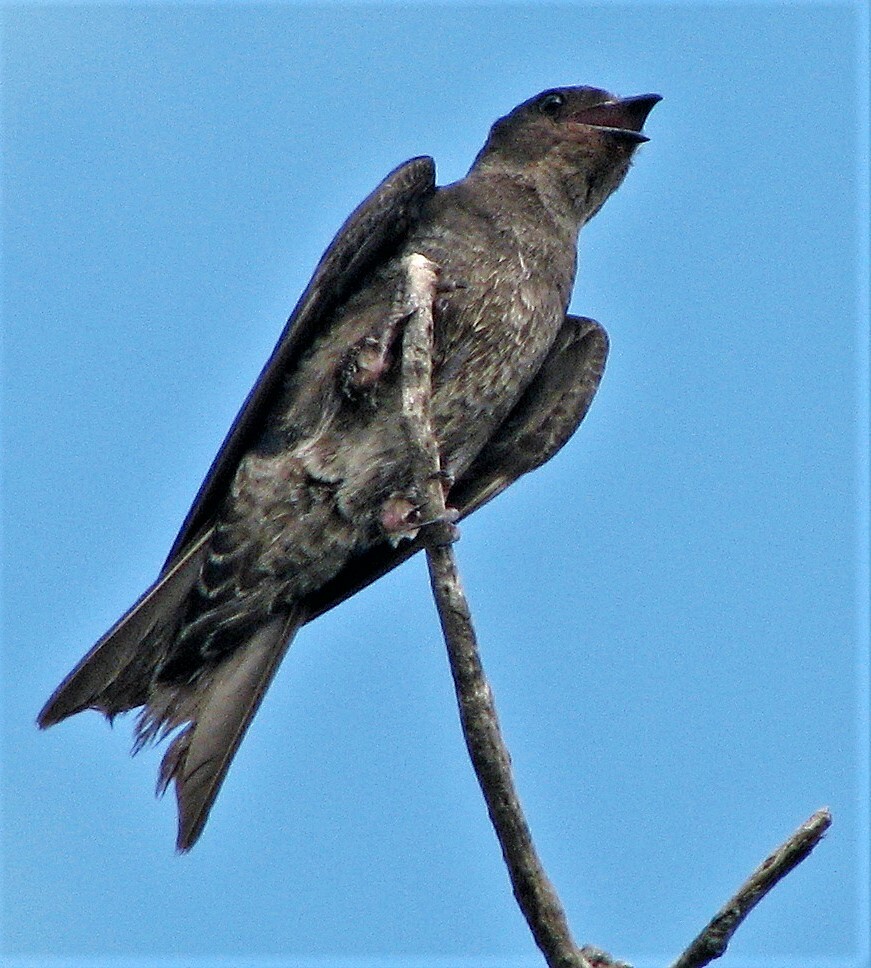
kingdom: Animalia
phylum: Chordata
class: Aves
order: Passeriformes
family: Hirundinidae
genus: Progne
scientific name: Progne elegans
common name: Southern martin
